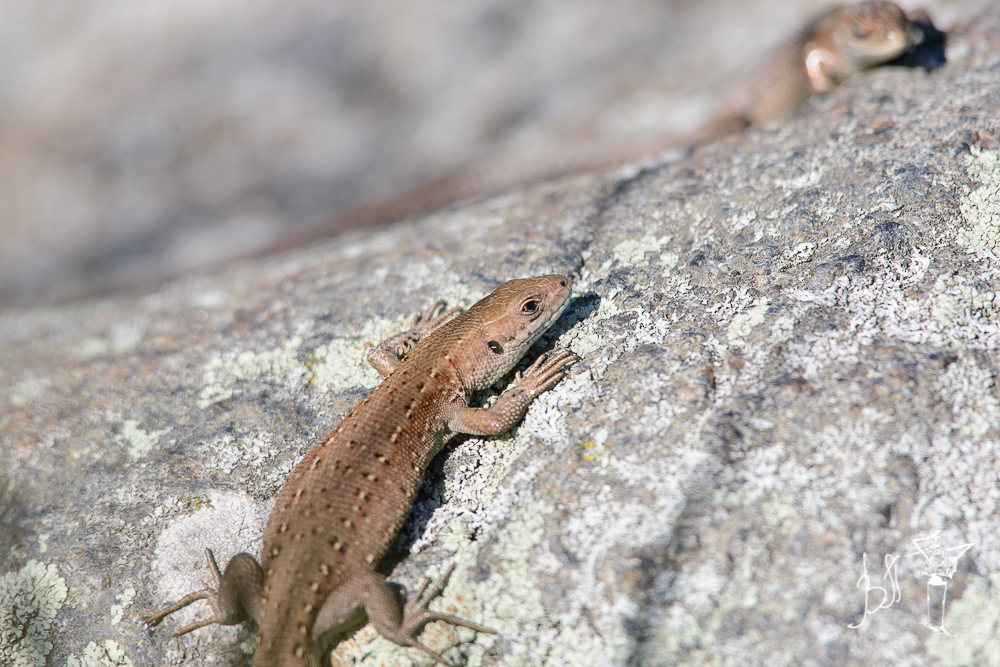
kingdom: Animalia
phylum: Chordata
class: Squamata
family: Lacertidae
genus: Zootoca
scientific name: Zootoca vivipara
